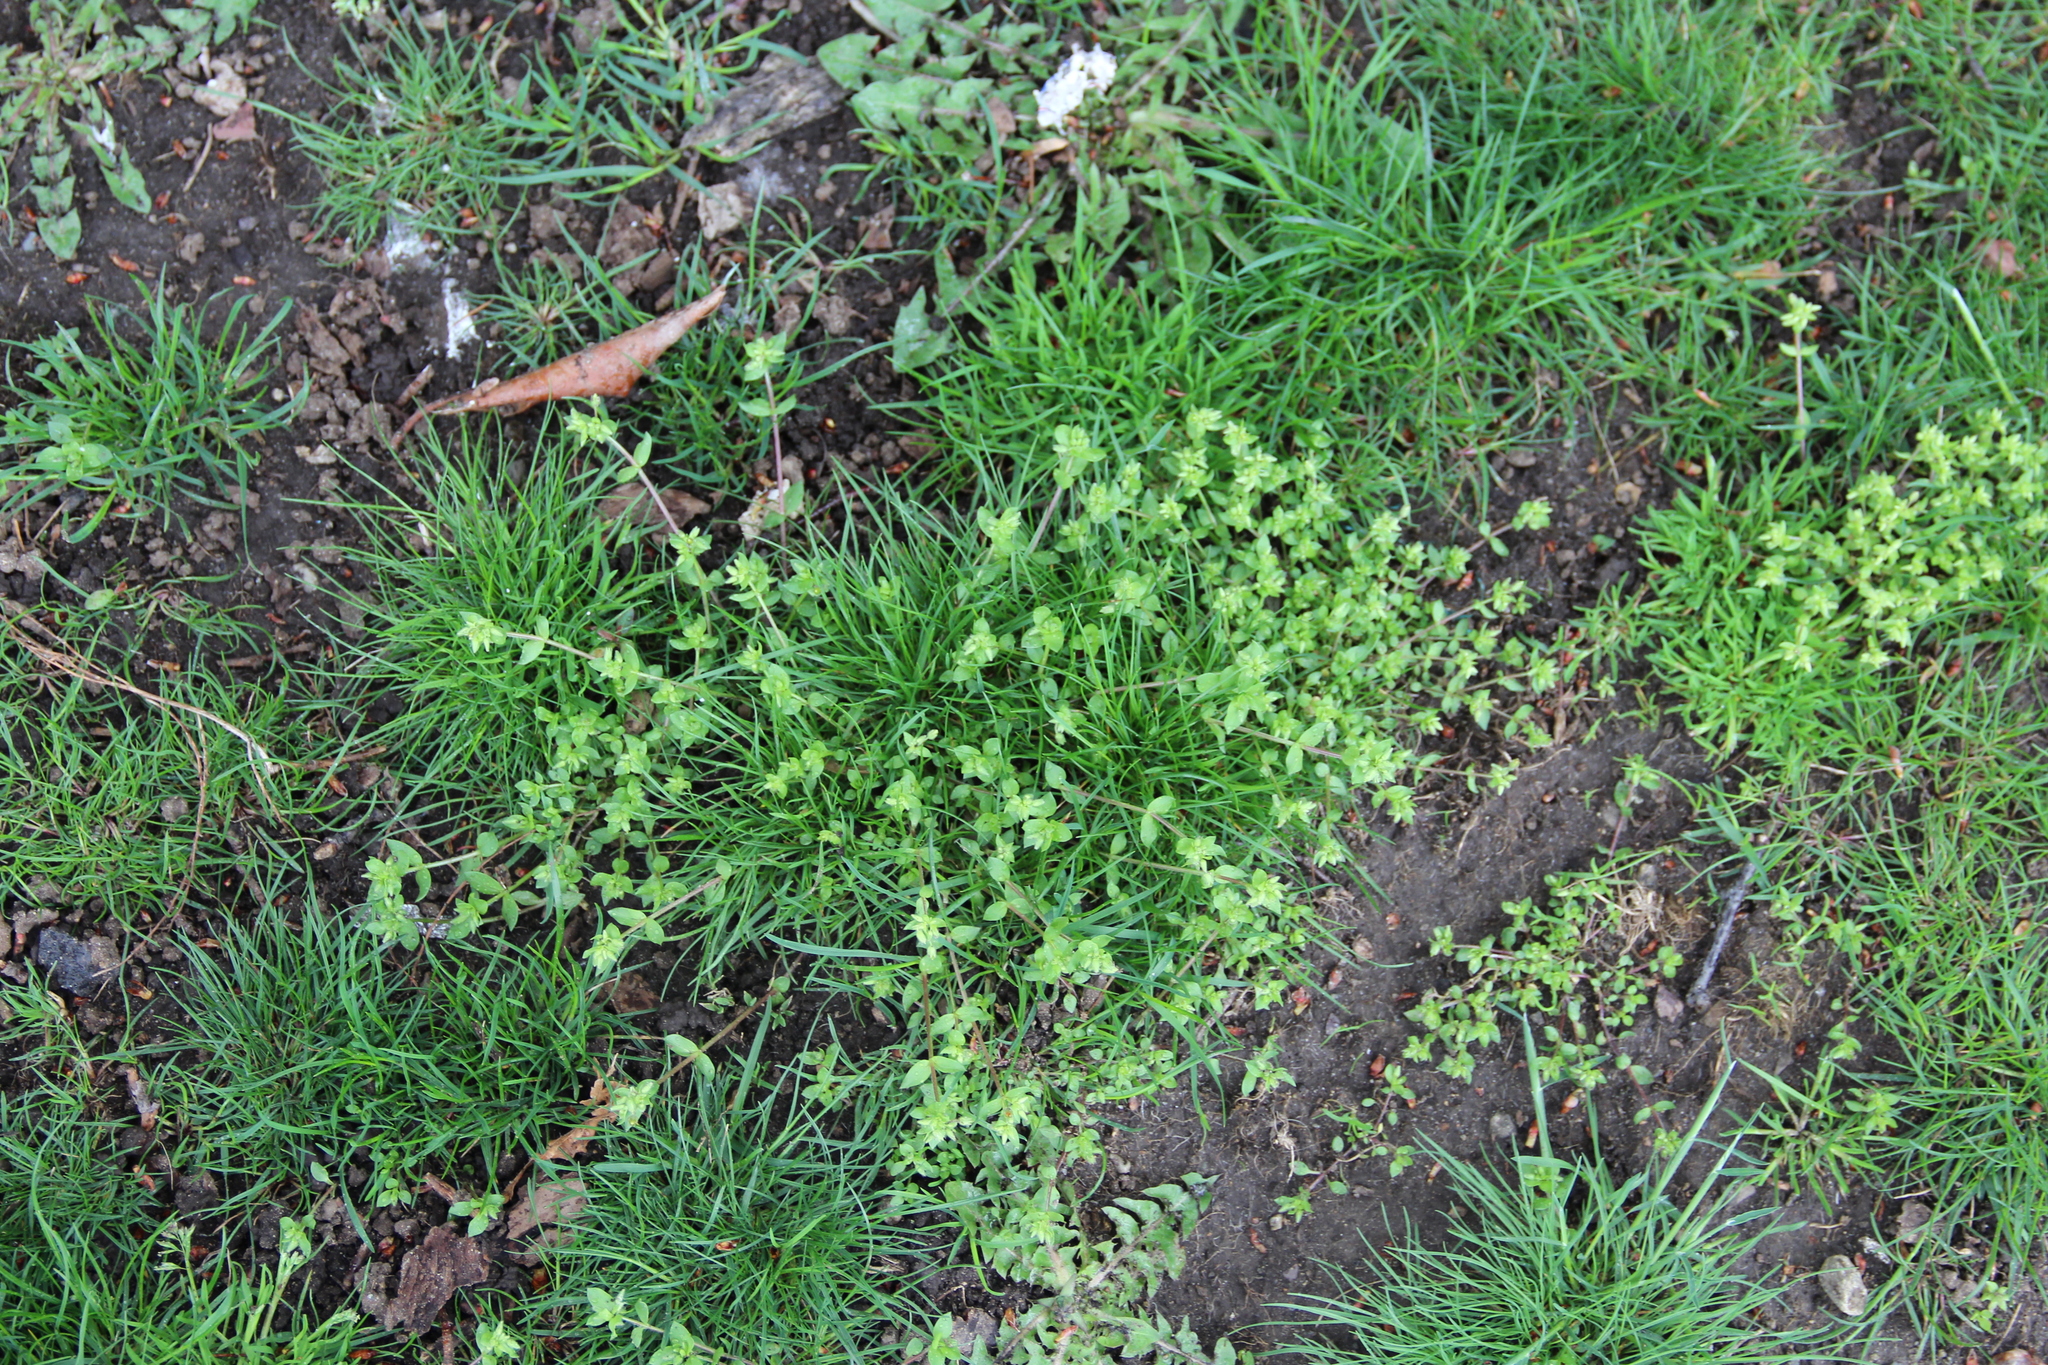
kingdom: Plantae
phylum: Tracheophyta
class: Magnoliopsida
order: Caryophyllales
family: Caryophyllaceae
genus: Stellaria
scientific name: Stellaria media
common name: Common chickweed
